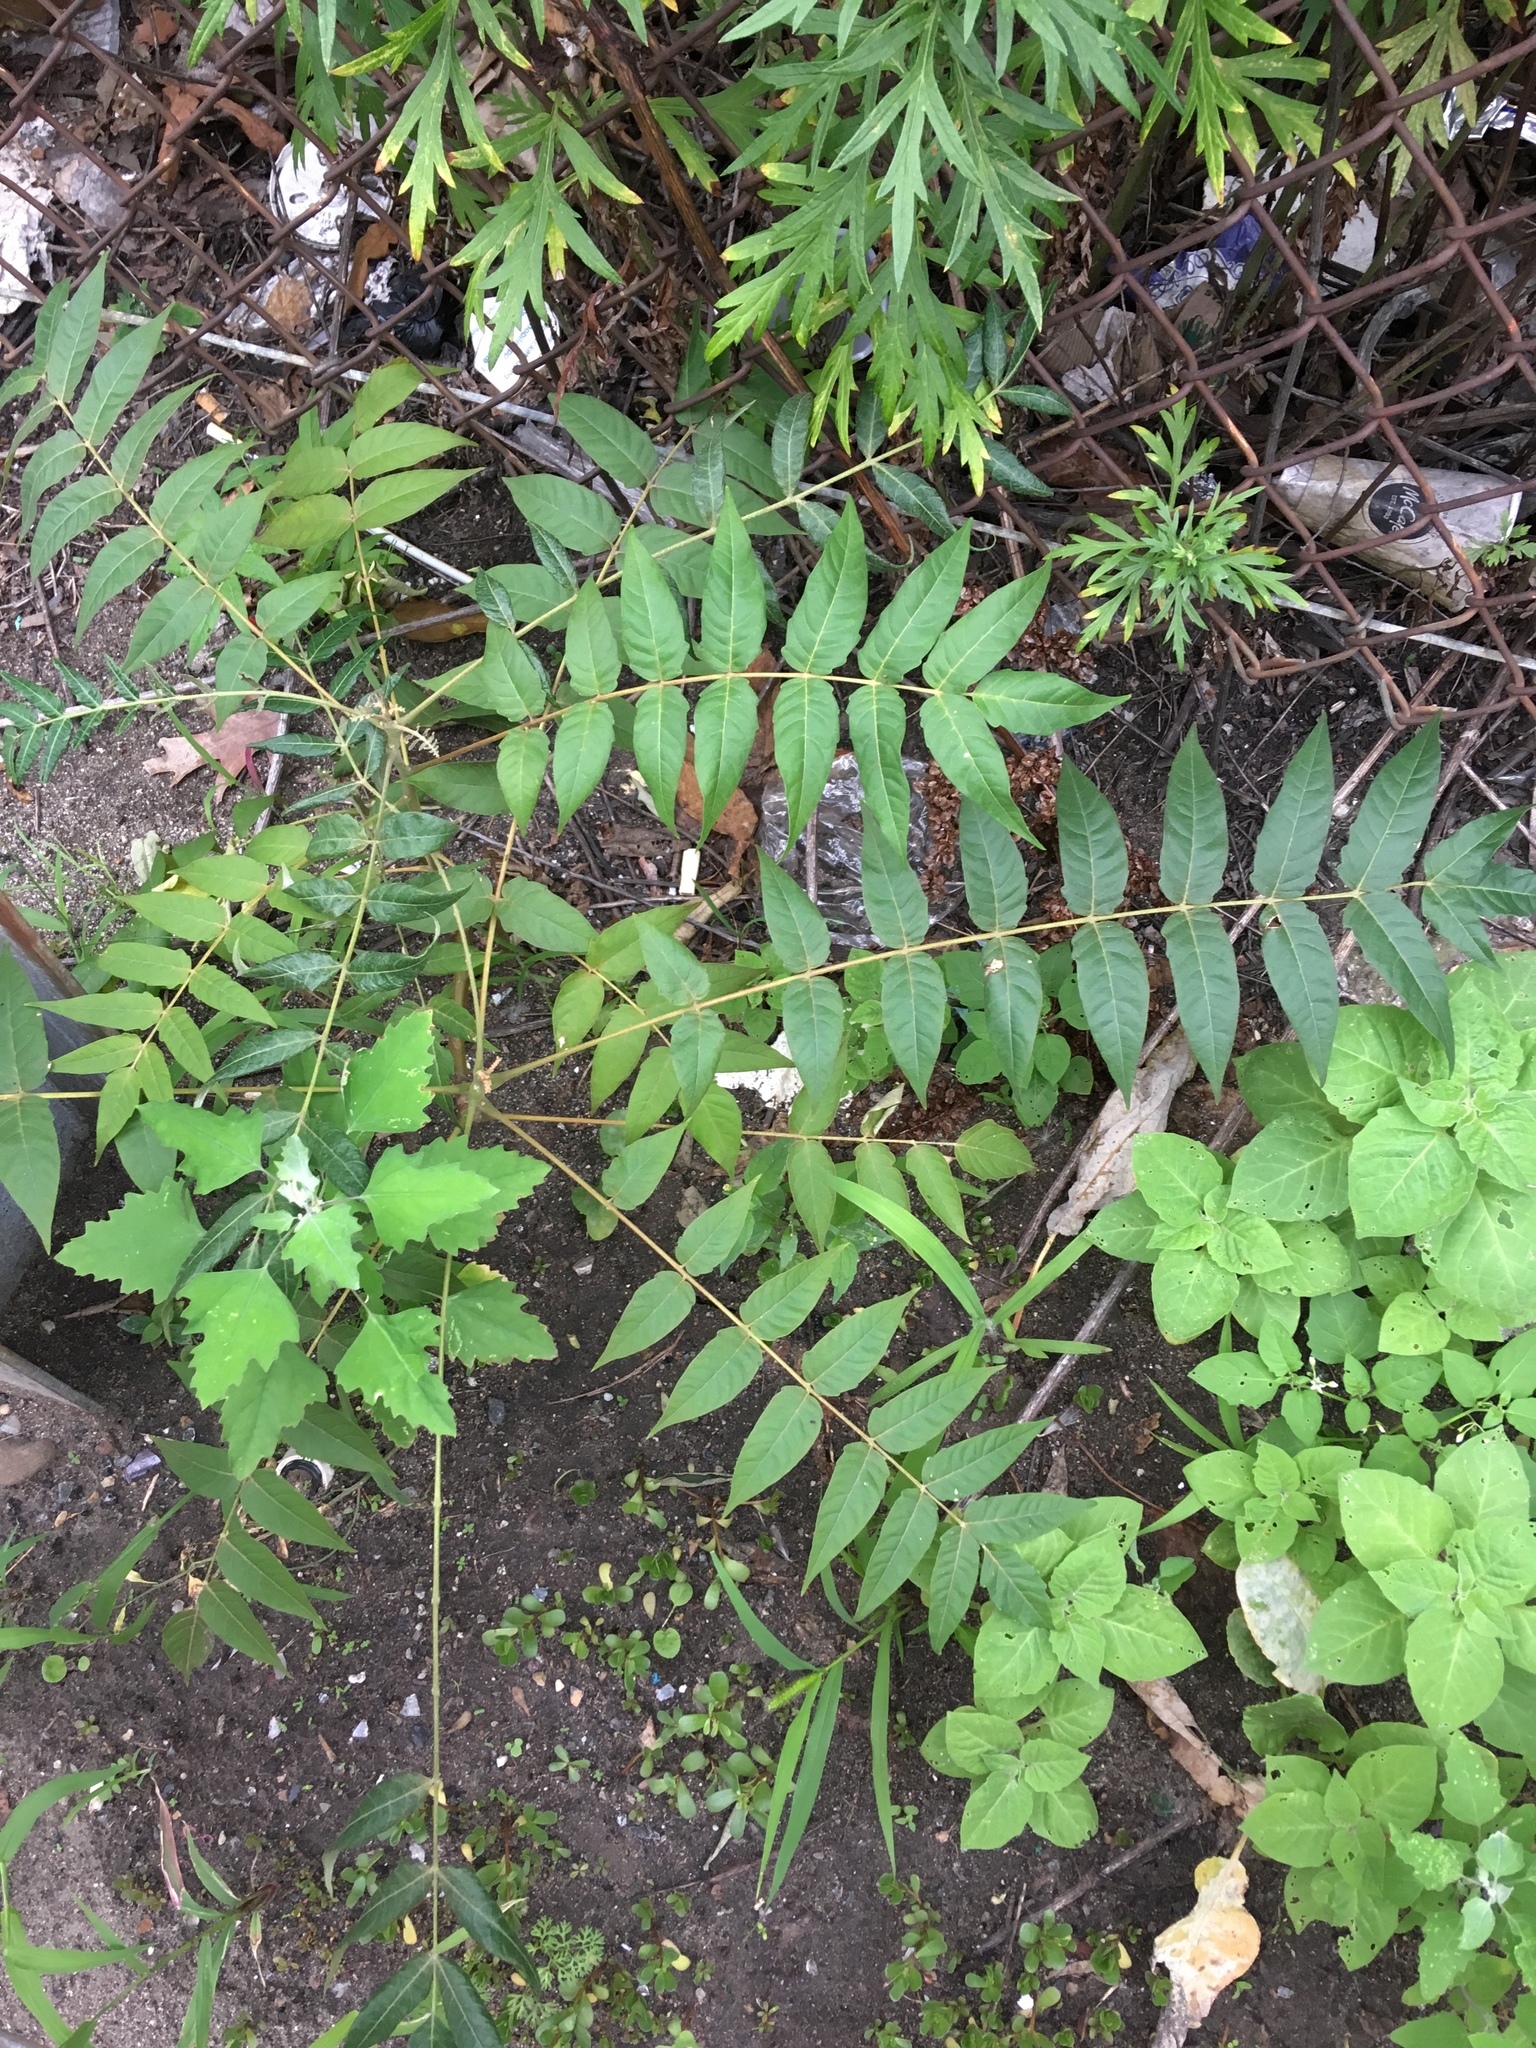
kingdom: Plantae
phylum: Tracheophyta
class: Magnoliopsida
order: Sapindales
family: Simaroubaceae
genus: Ailanthus
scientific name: Ailanthus altissima
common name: Tree-of-heaven
